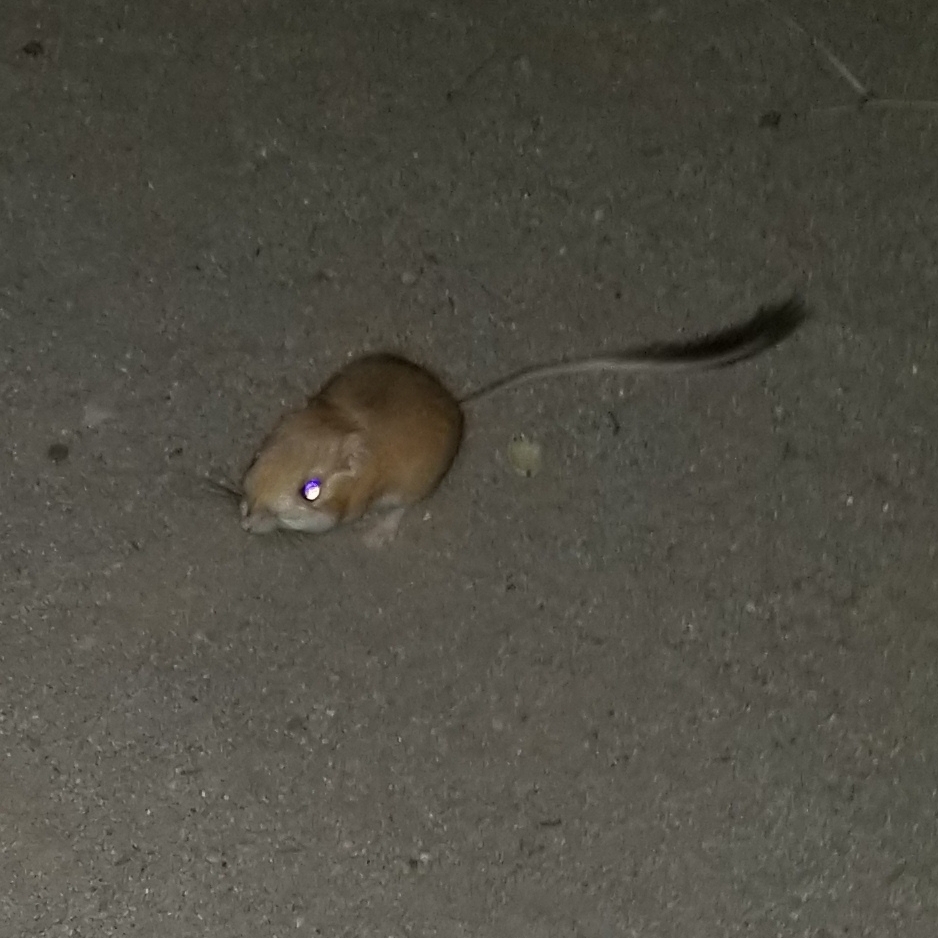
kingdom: Animalia
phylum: Chordata
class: Mammalia
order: Rodentia
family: Heteromyidae
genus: Dipodomys
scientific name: Dipodomys merriami
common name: Merriam's kangaroo rat
